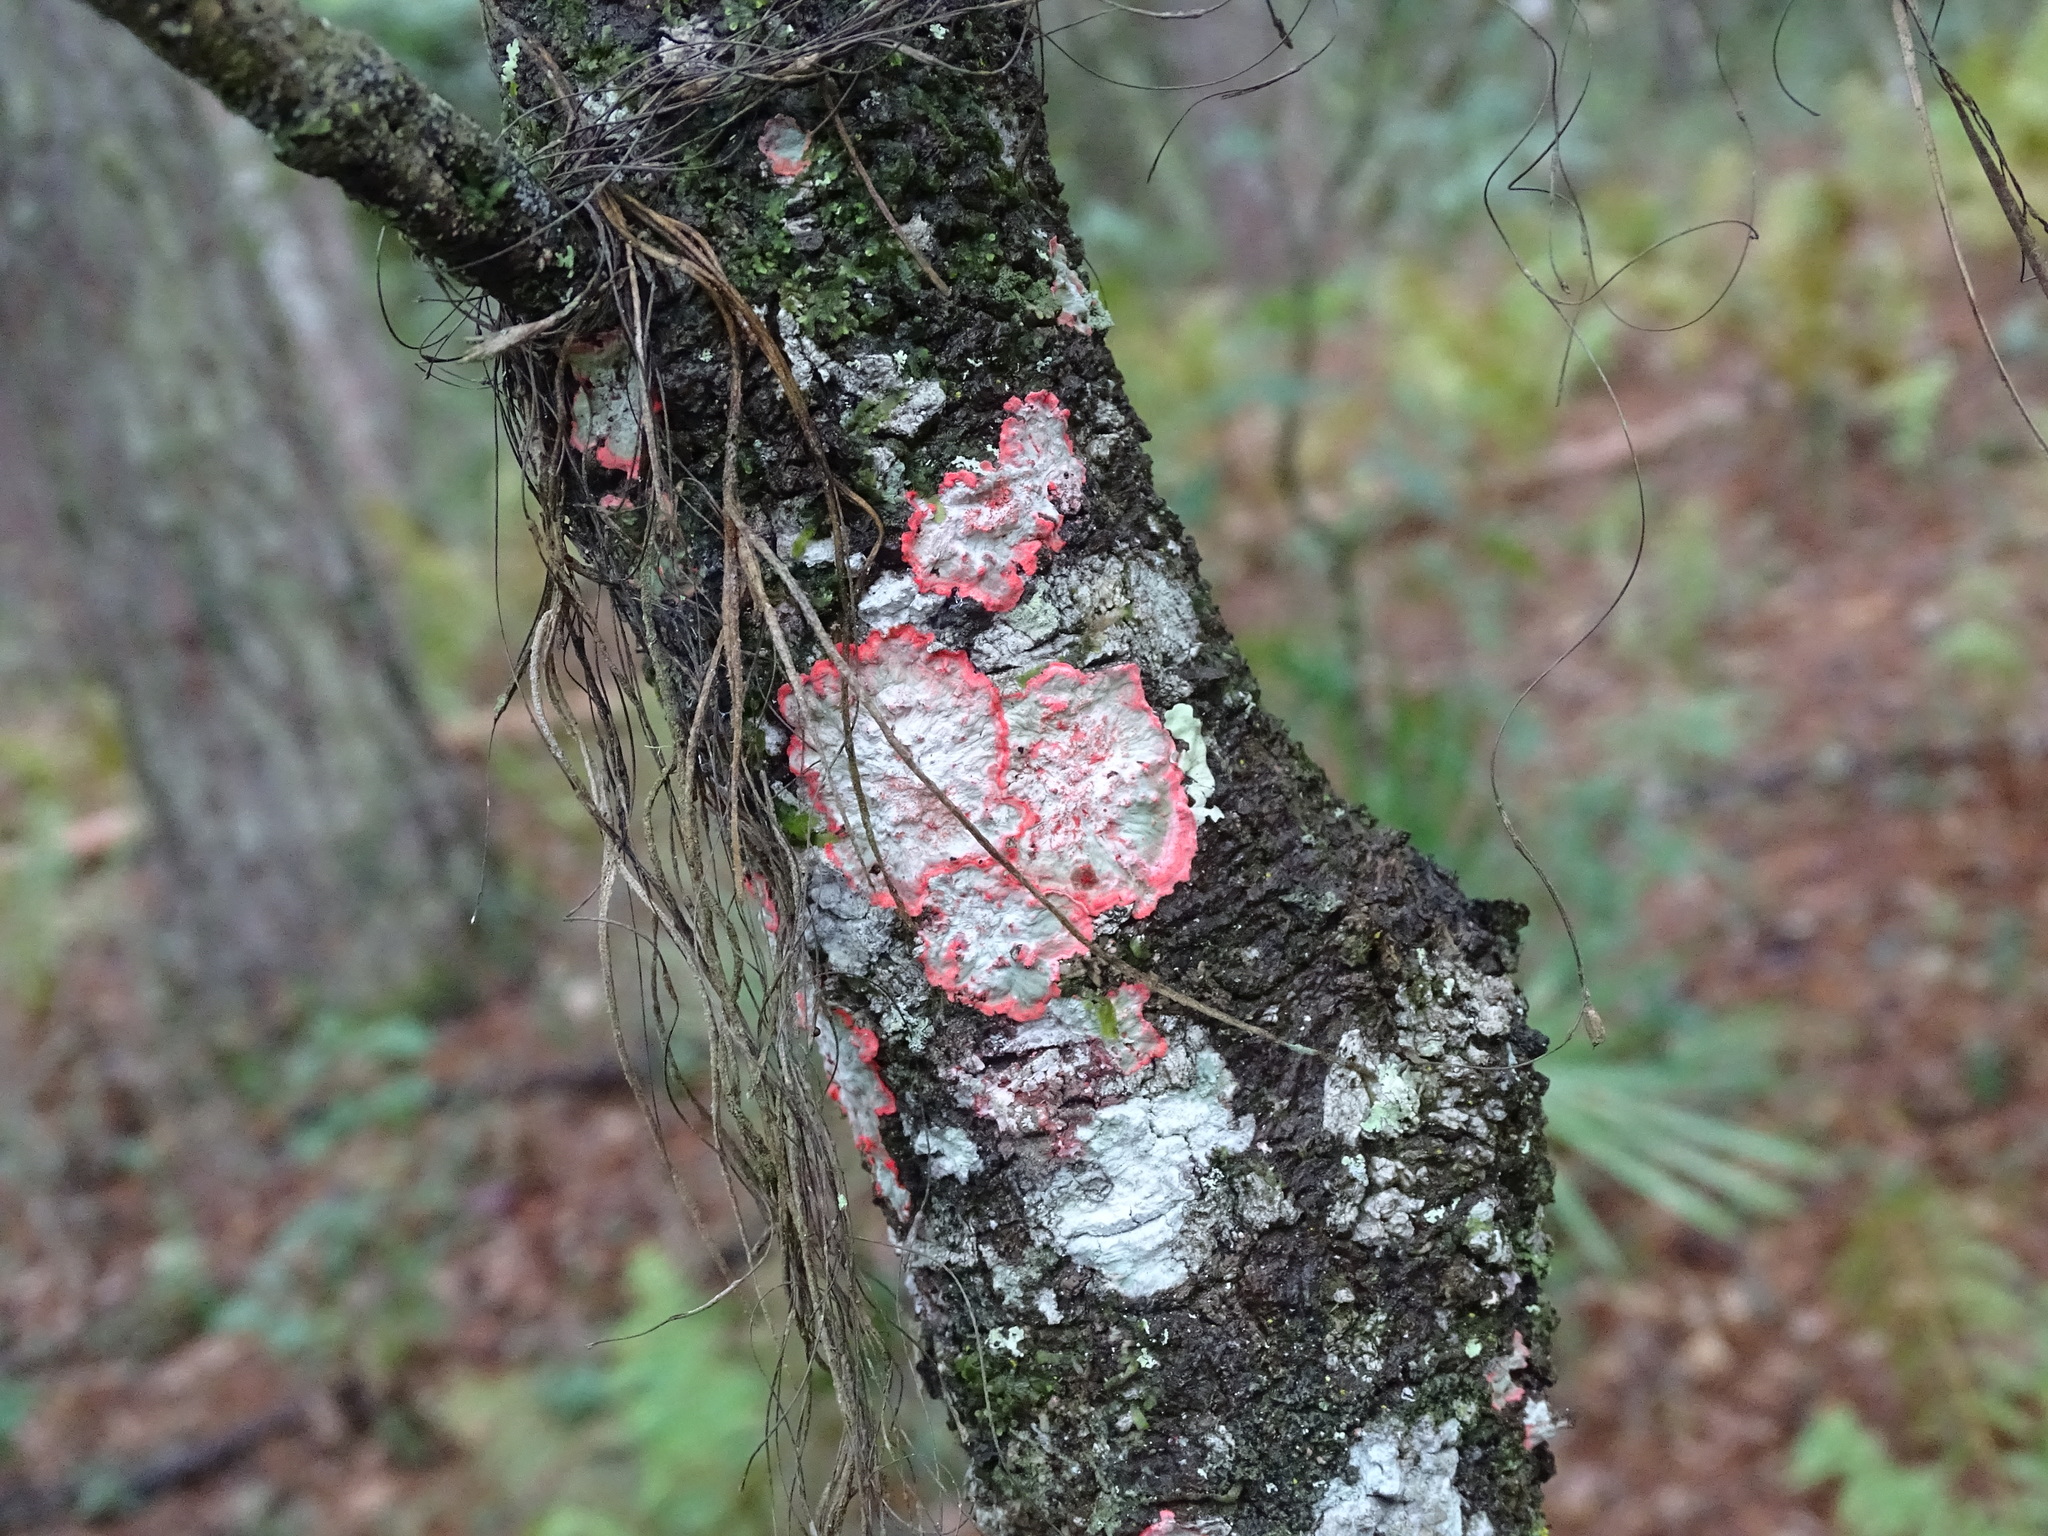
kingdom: Fungi
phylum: Ascomycota
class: Arthoniomycetes
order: Arthoniales
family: Arthoniaceae
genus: Herpothallon
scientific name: Herpothallon rubrocinctum
